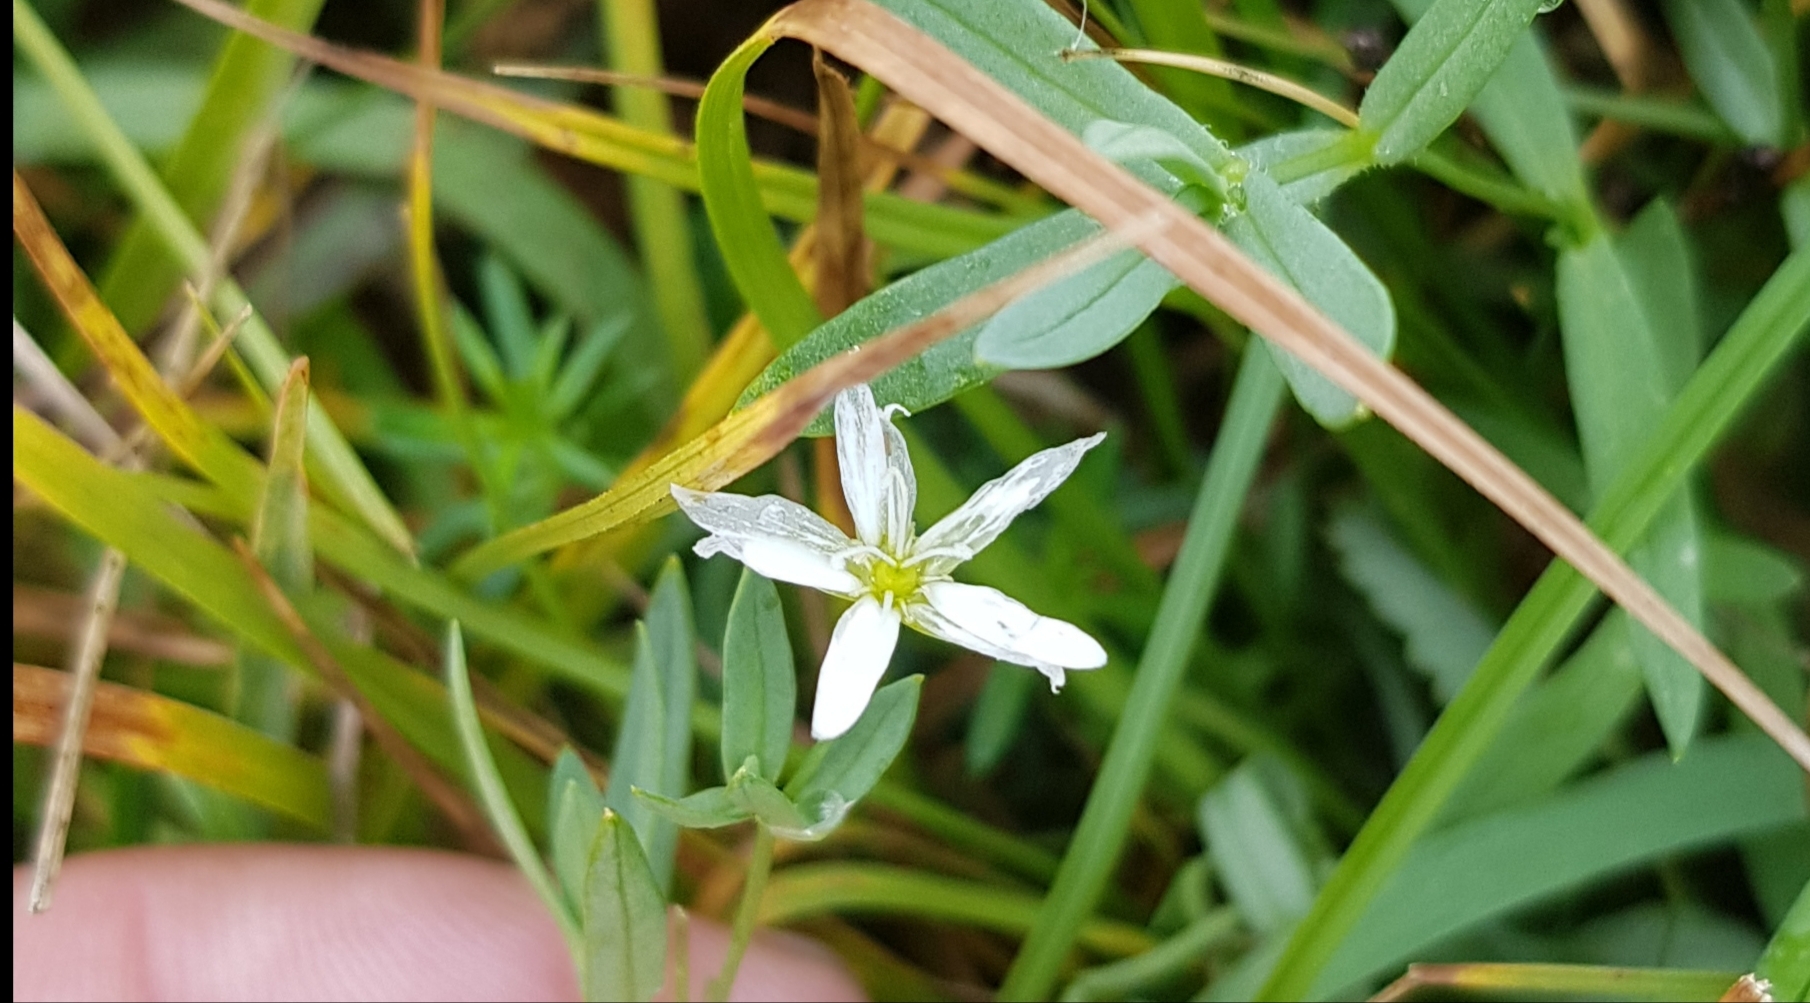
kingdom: Plantae
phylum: Tracheophyta
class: Magnoliopsida
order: Caryophyllales
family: Caryophyllaceae
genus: Moehringia
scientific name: Moehringia umbrosa
